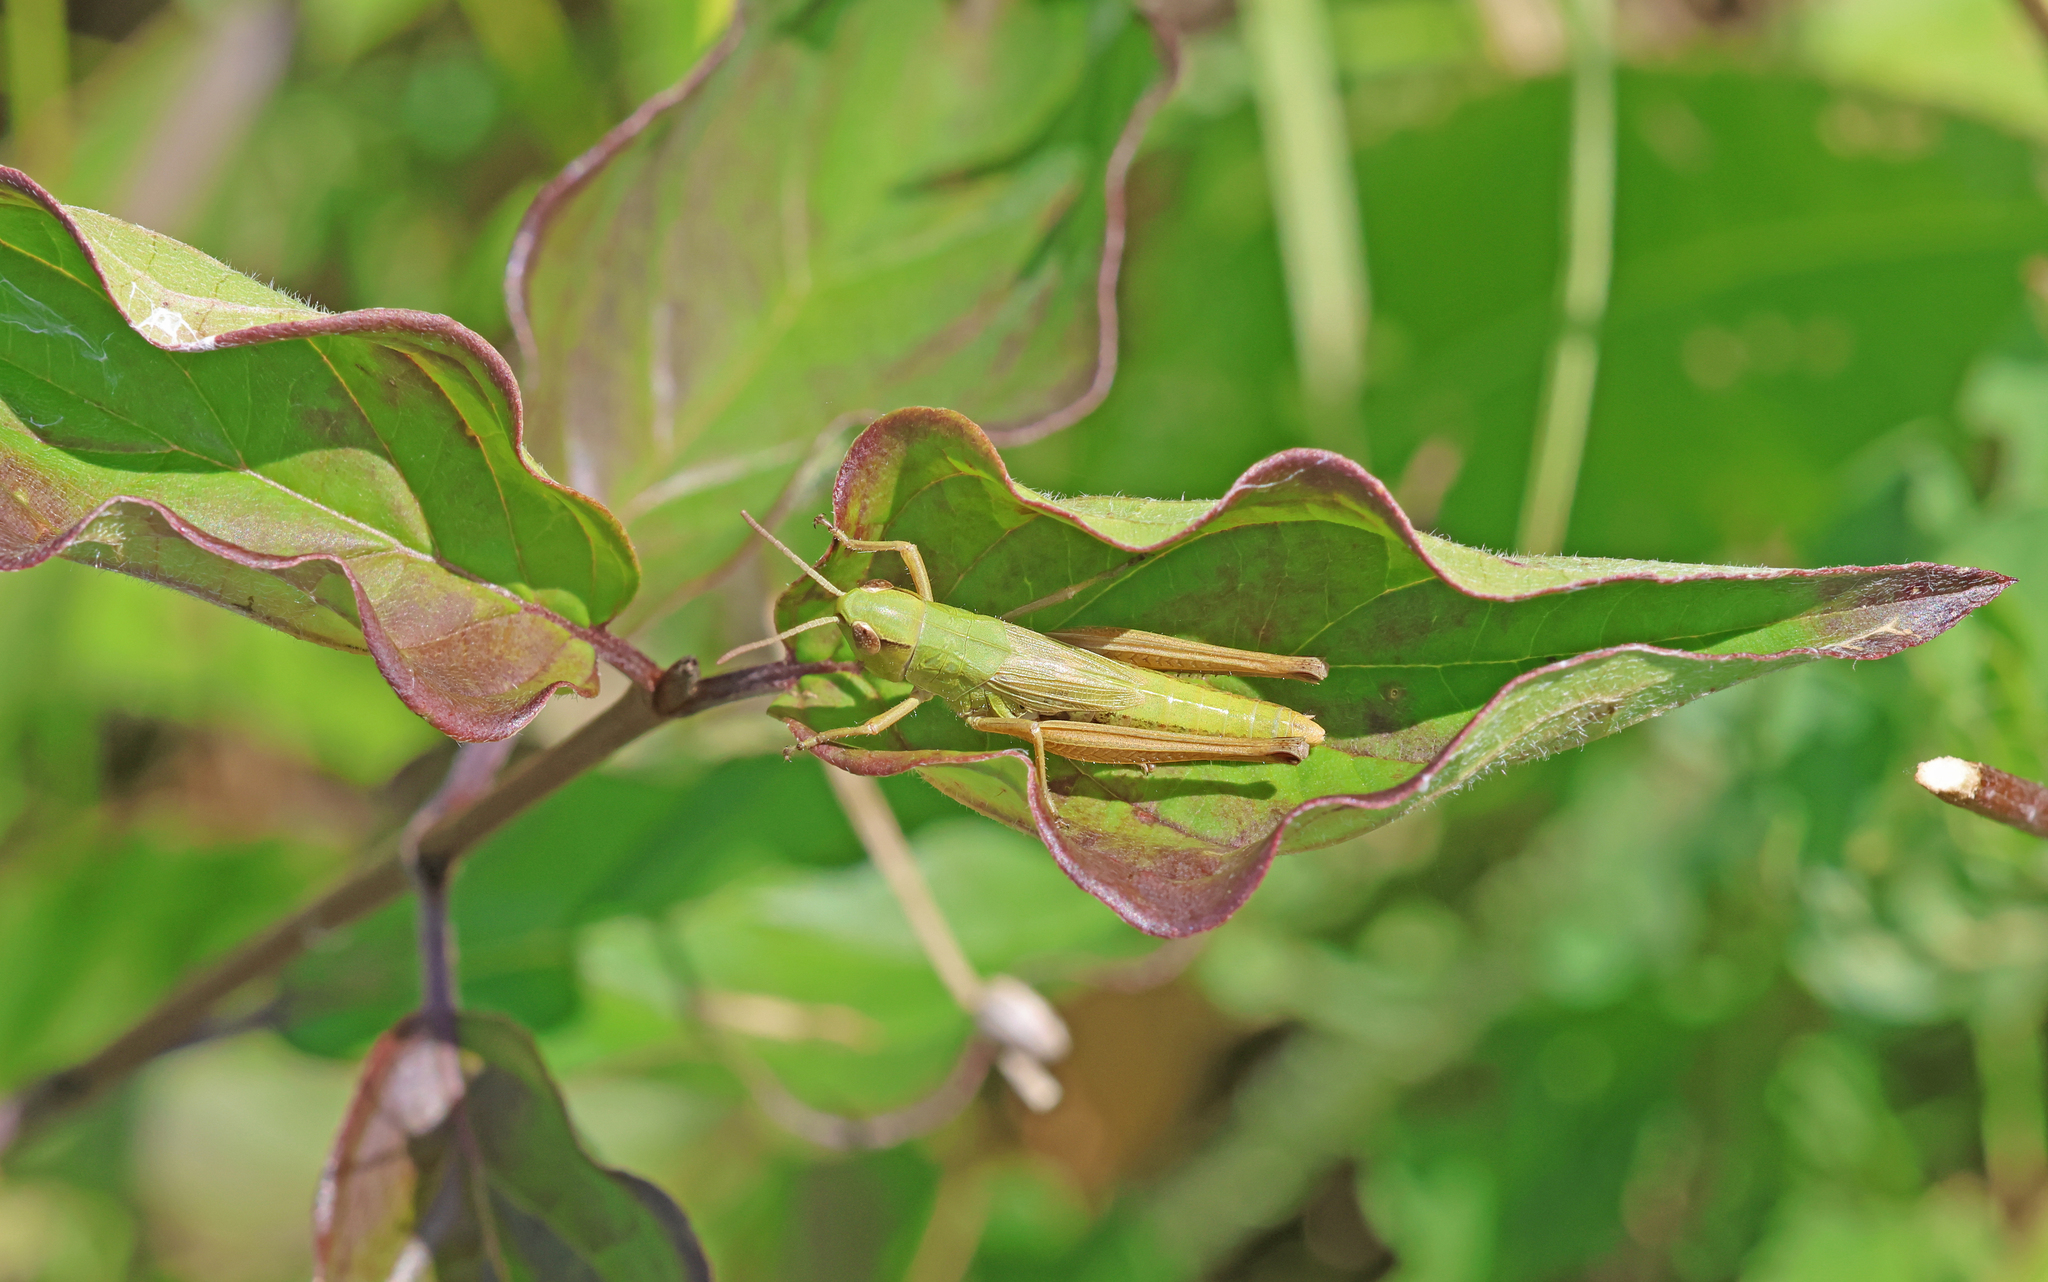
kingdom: Animalia
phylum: Arthropoda
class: Insecta
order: Orthoptera
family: Acrididae
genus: Pseudochorthippus
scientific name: Pseudochorthippus parallelus
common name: Meadow grasshopper
